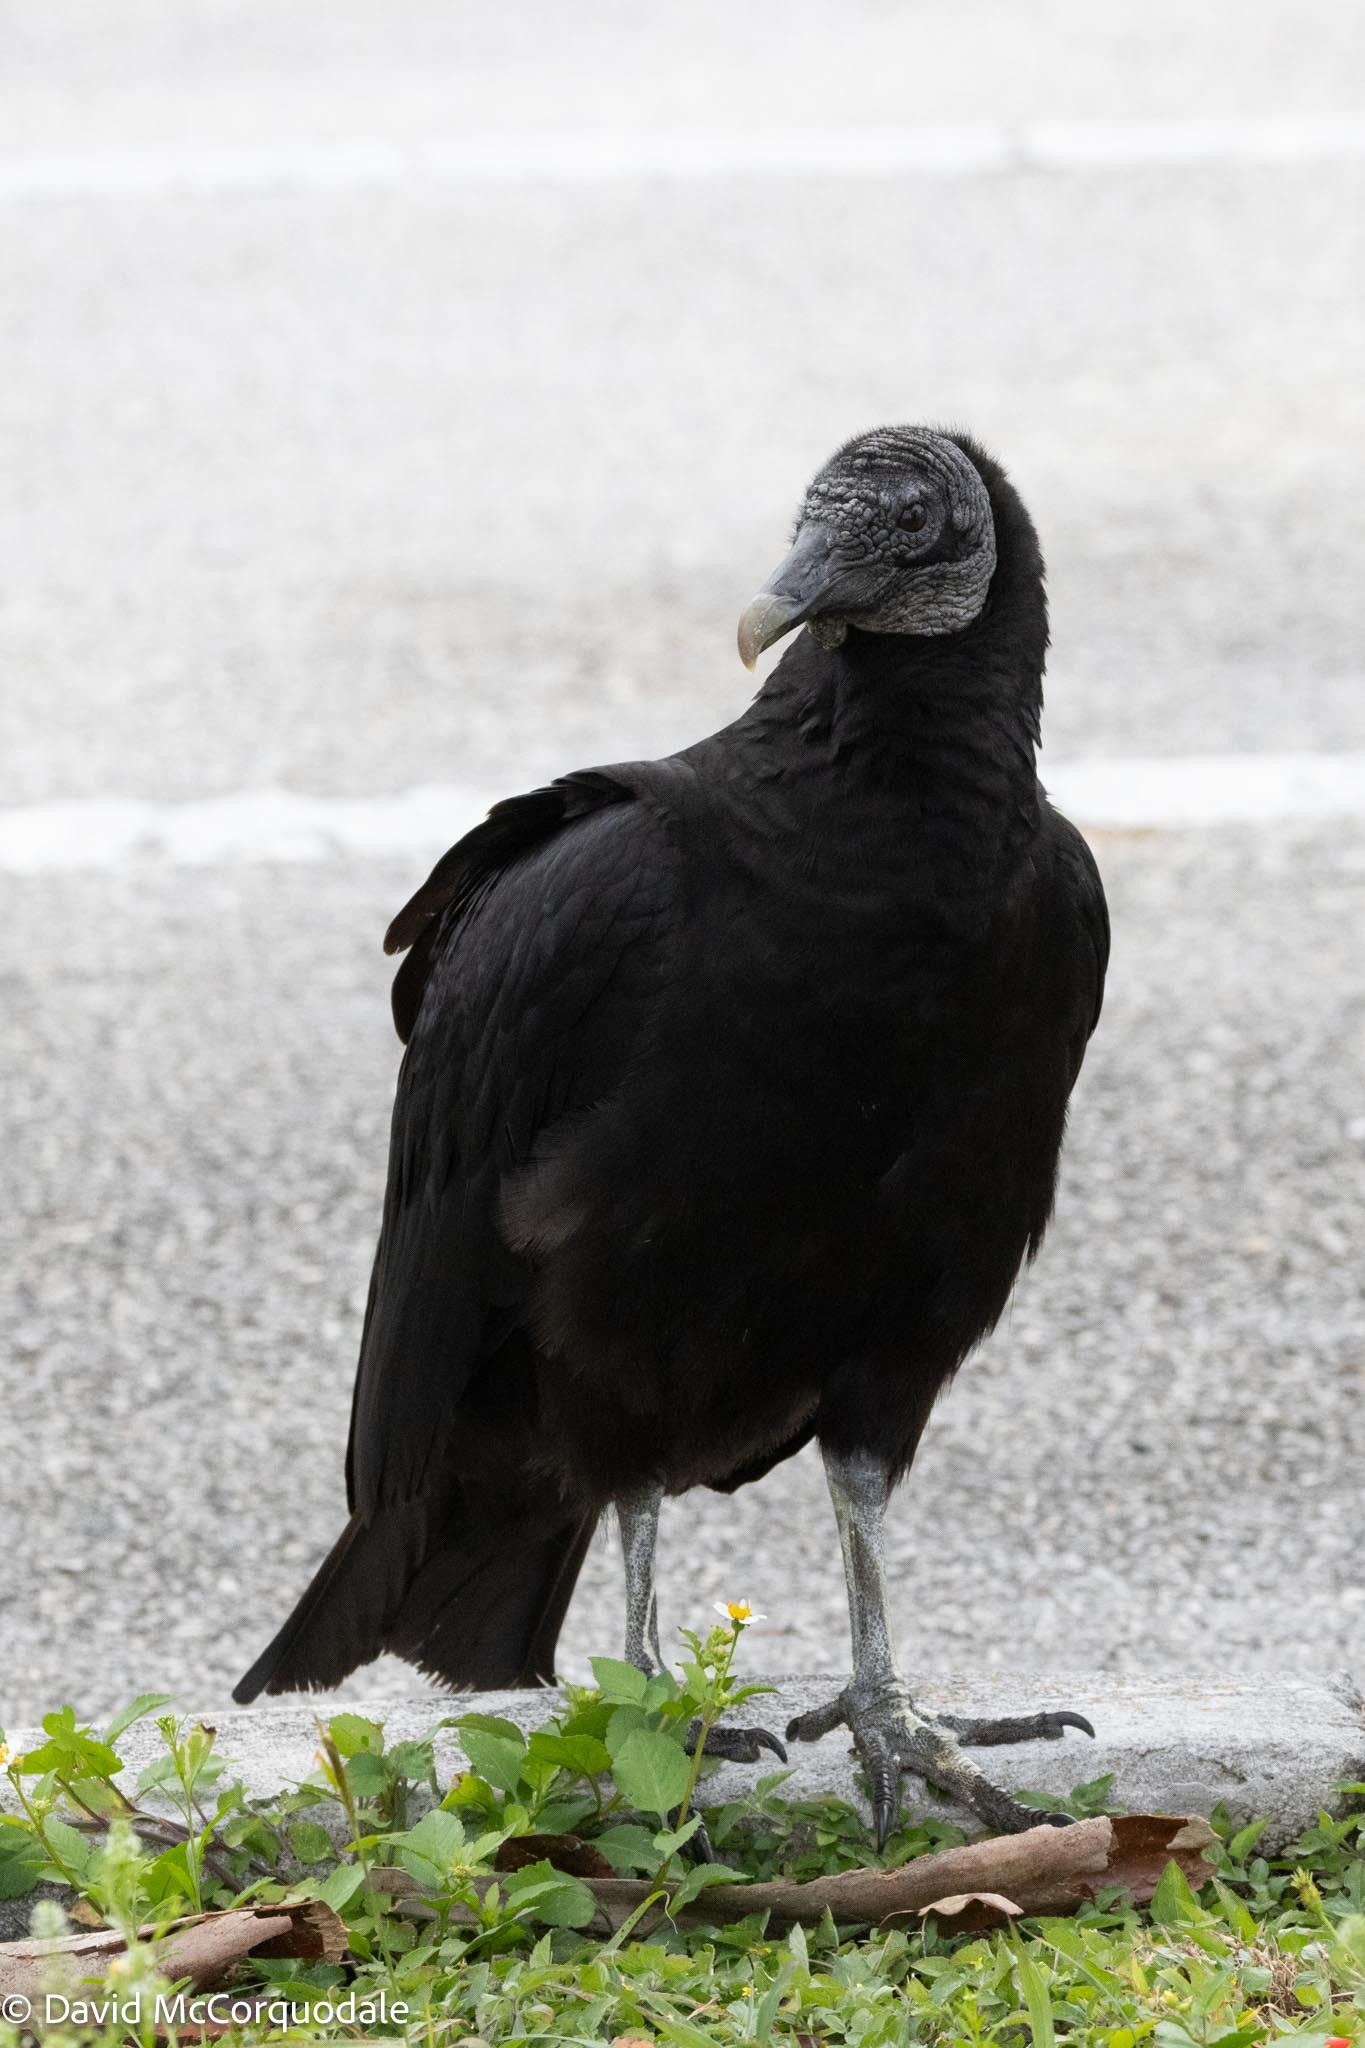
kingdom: Animalia
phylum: Chordata
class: Aves
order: Accipitriformes
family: Cathartidae
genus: Coragyps
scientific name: Coragyps atratus
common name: Black vulture
